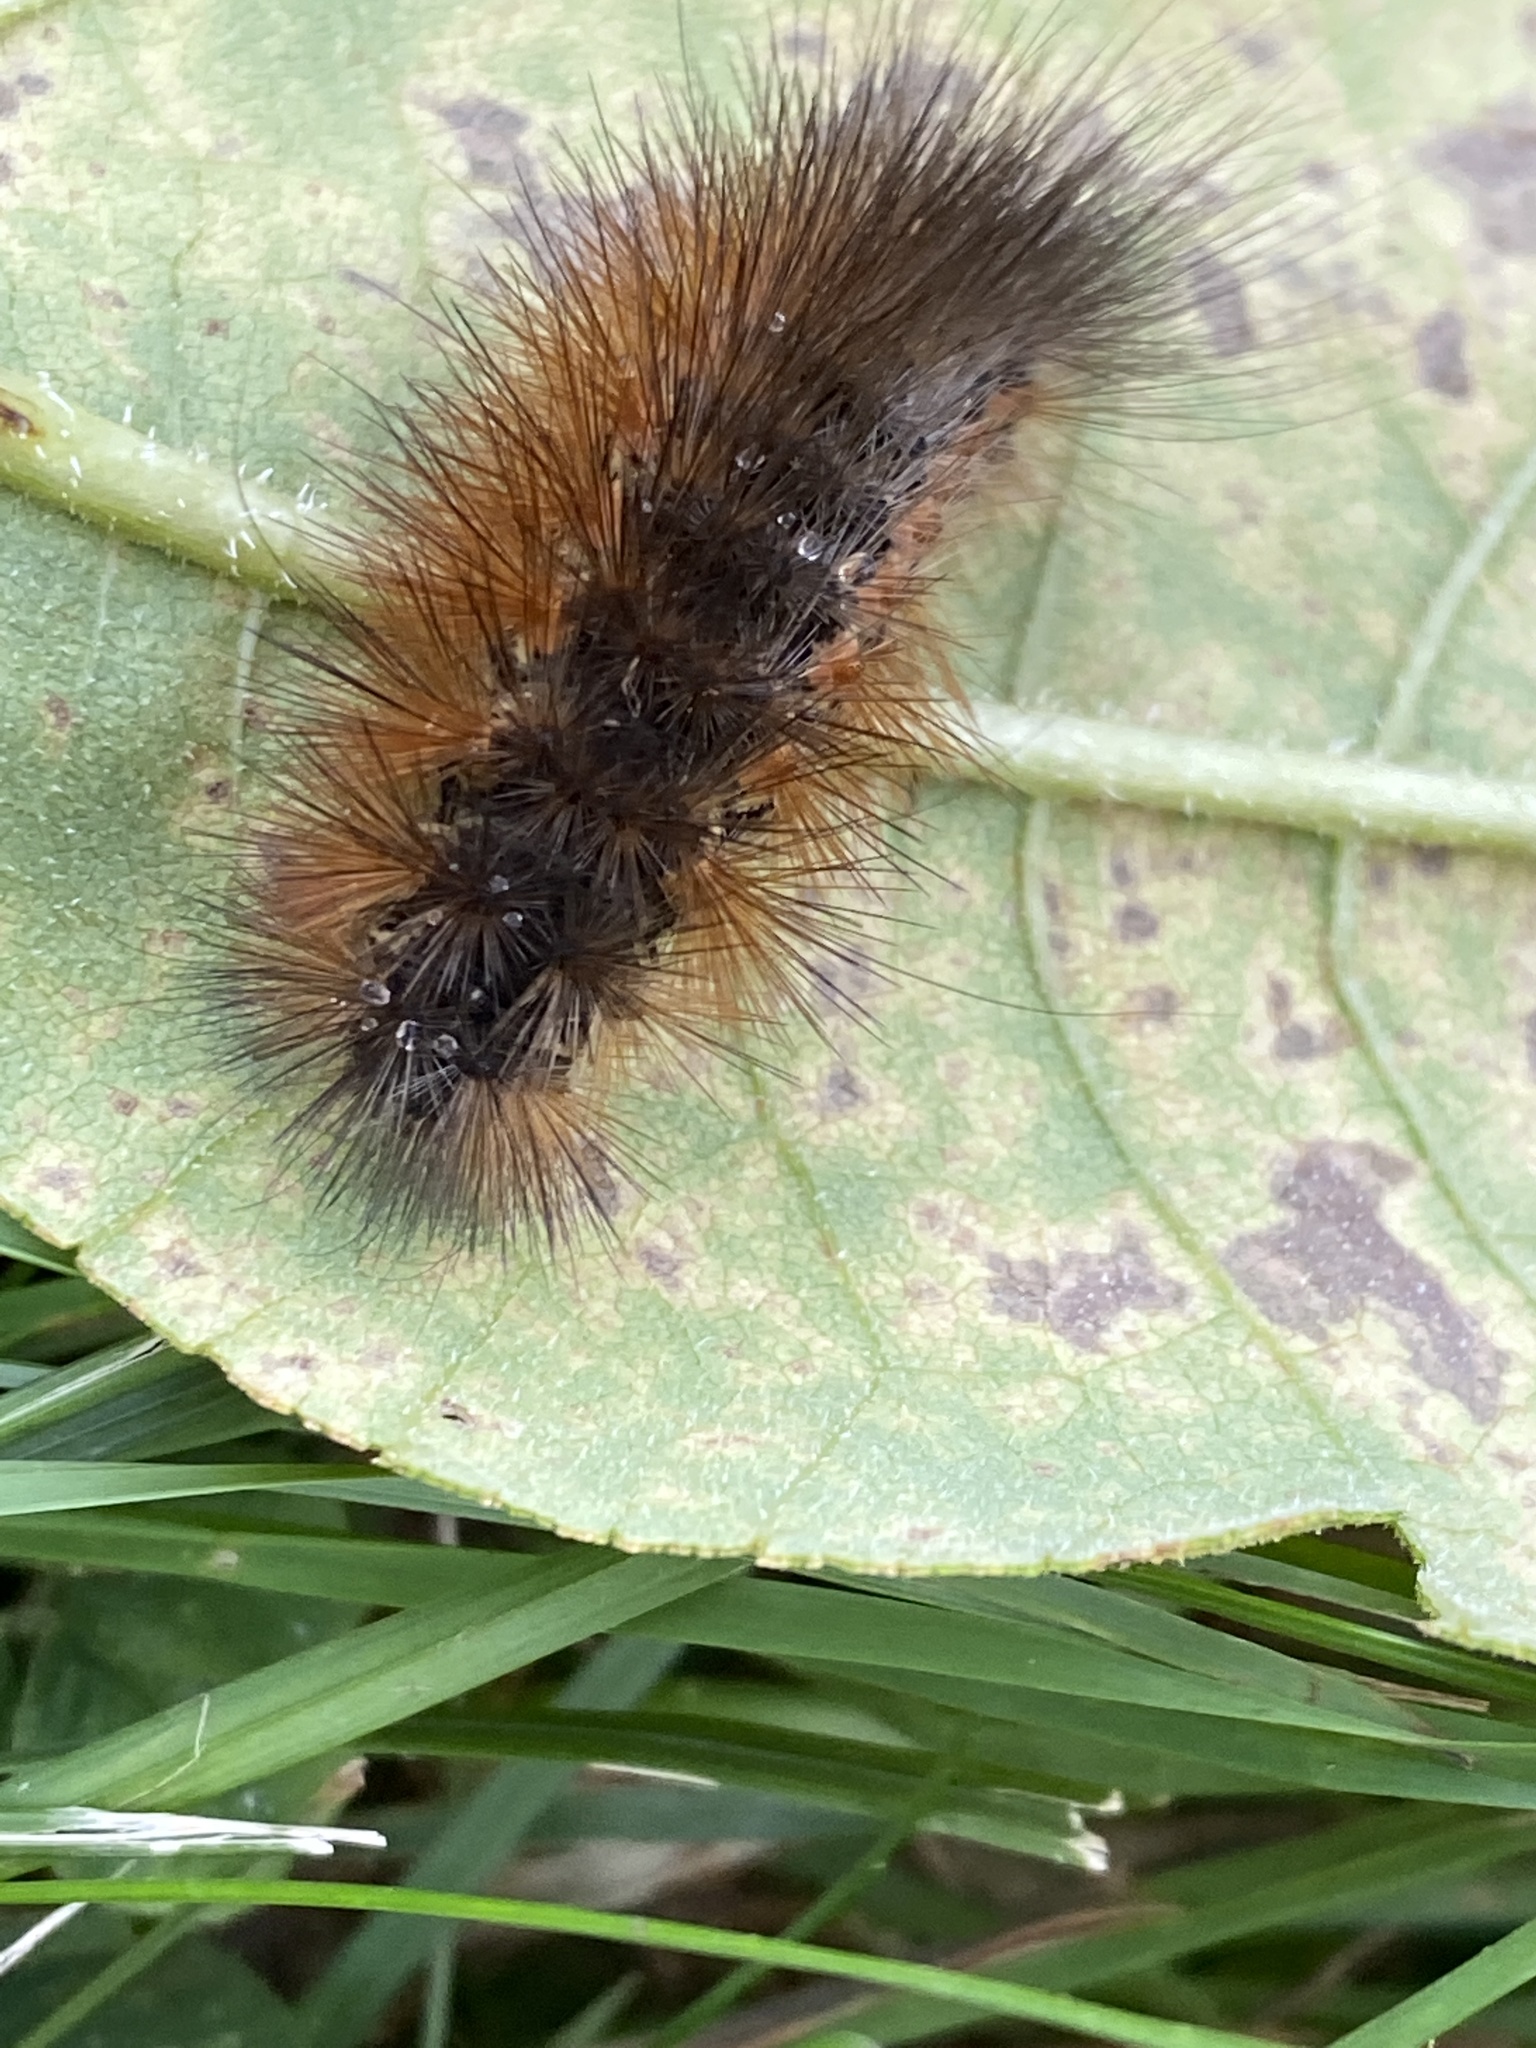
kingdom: Animalia
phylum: Arthropoda
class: Insecta
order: Lepidoptera
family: Erebidae
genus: Estigmene
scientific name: Estigmene acrea
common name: Salt marsh moth
